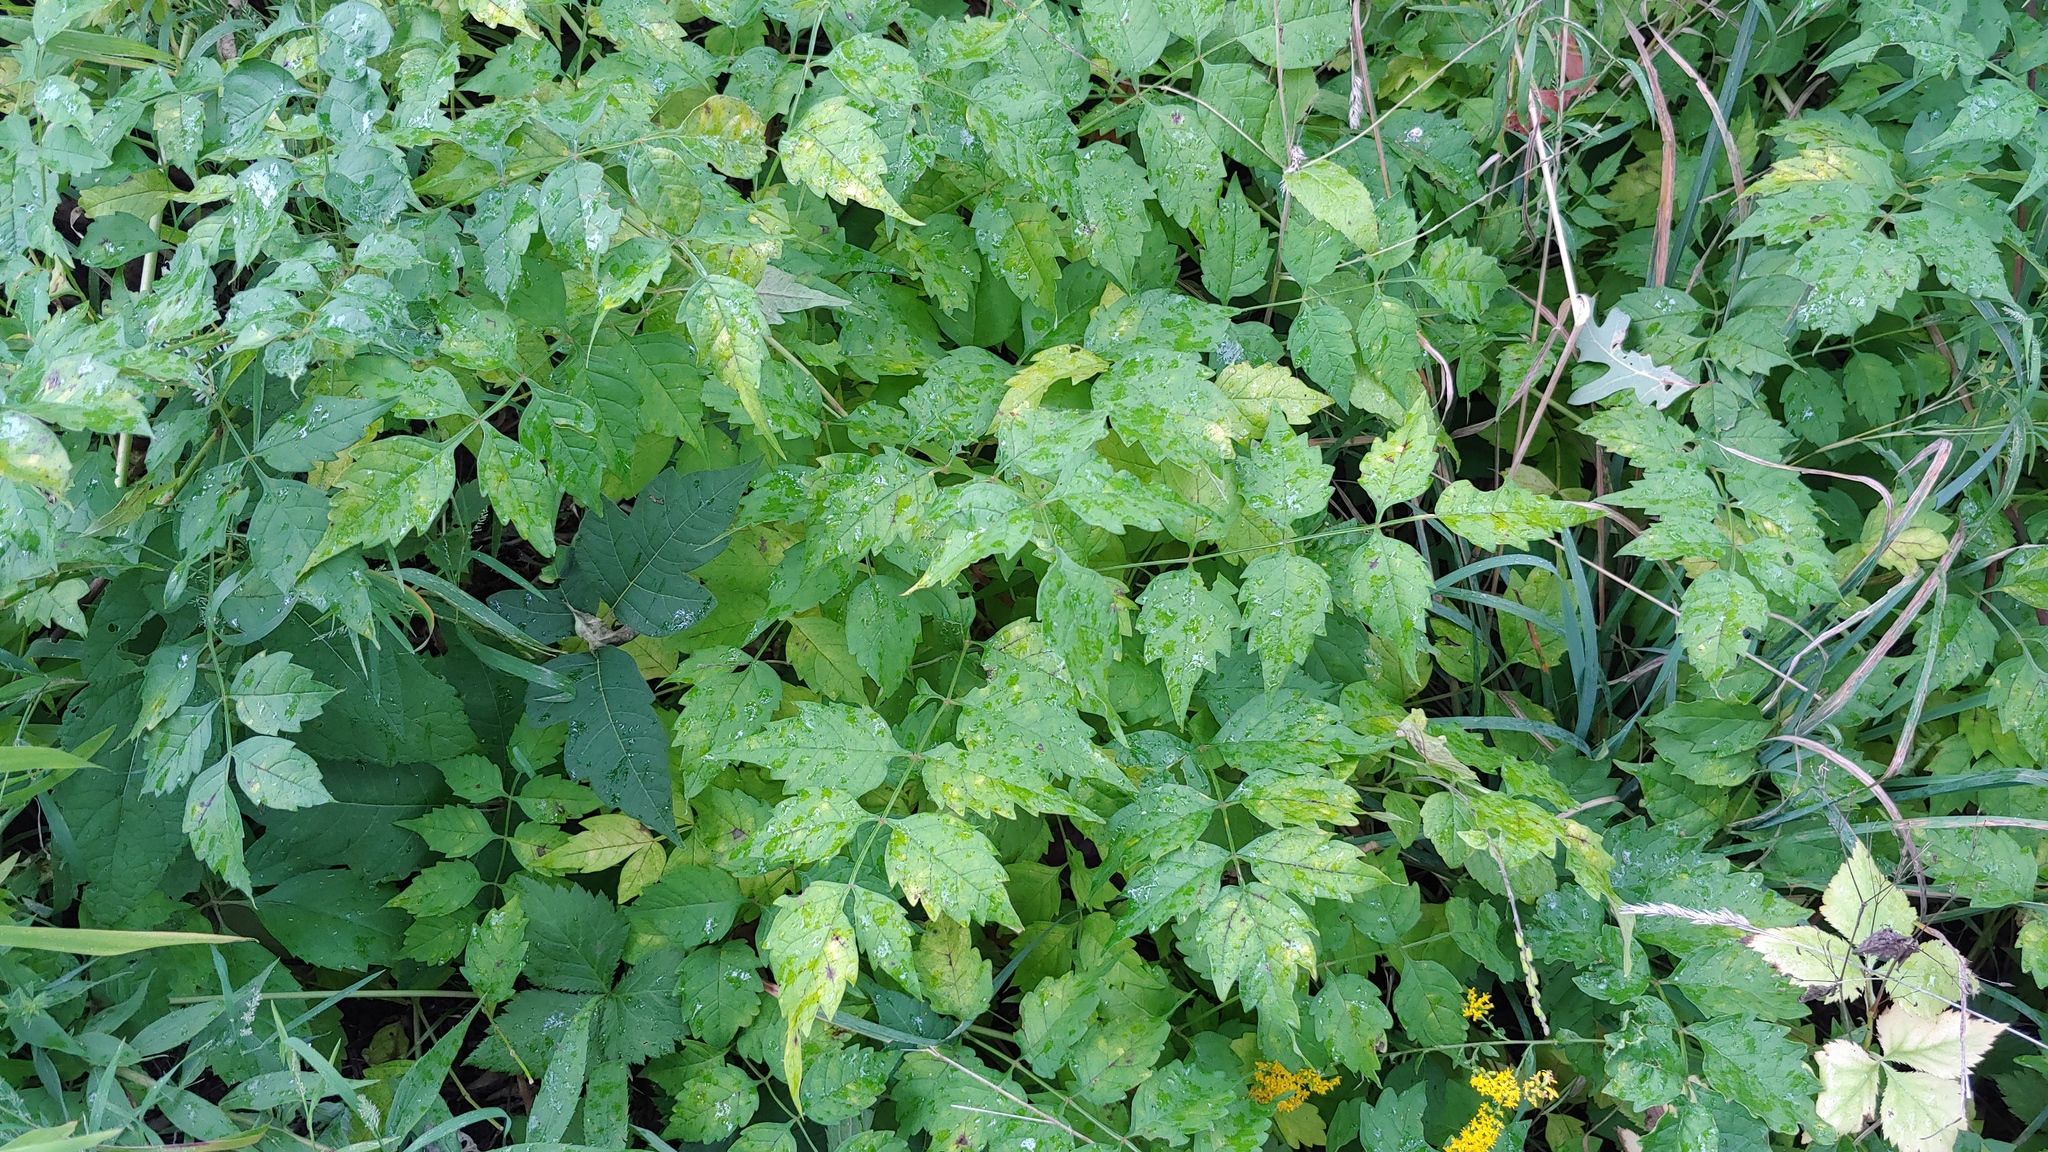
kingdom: Plantae
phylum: Tracheophyta
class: Magnoliopsida
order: Lamiales
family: Bignoniaceae
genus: Campsis
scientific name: Campsis radicans
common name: Trumpet-creeper
